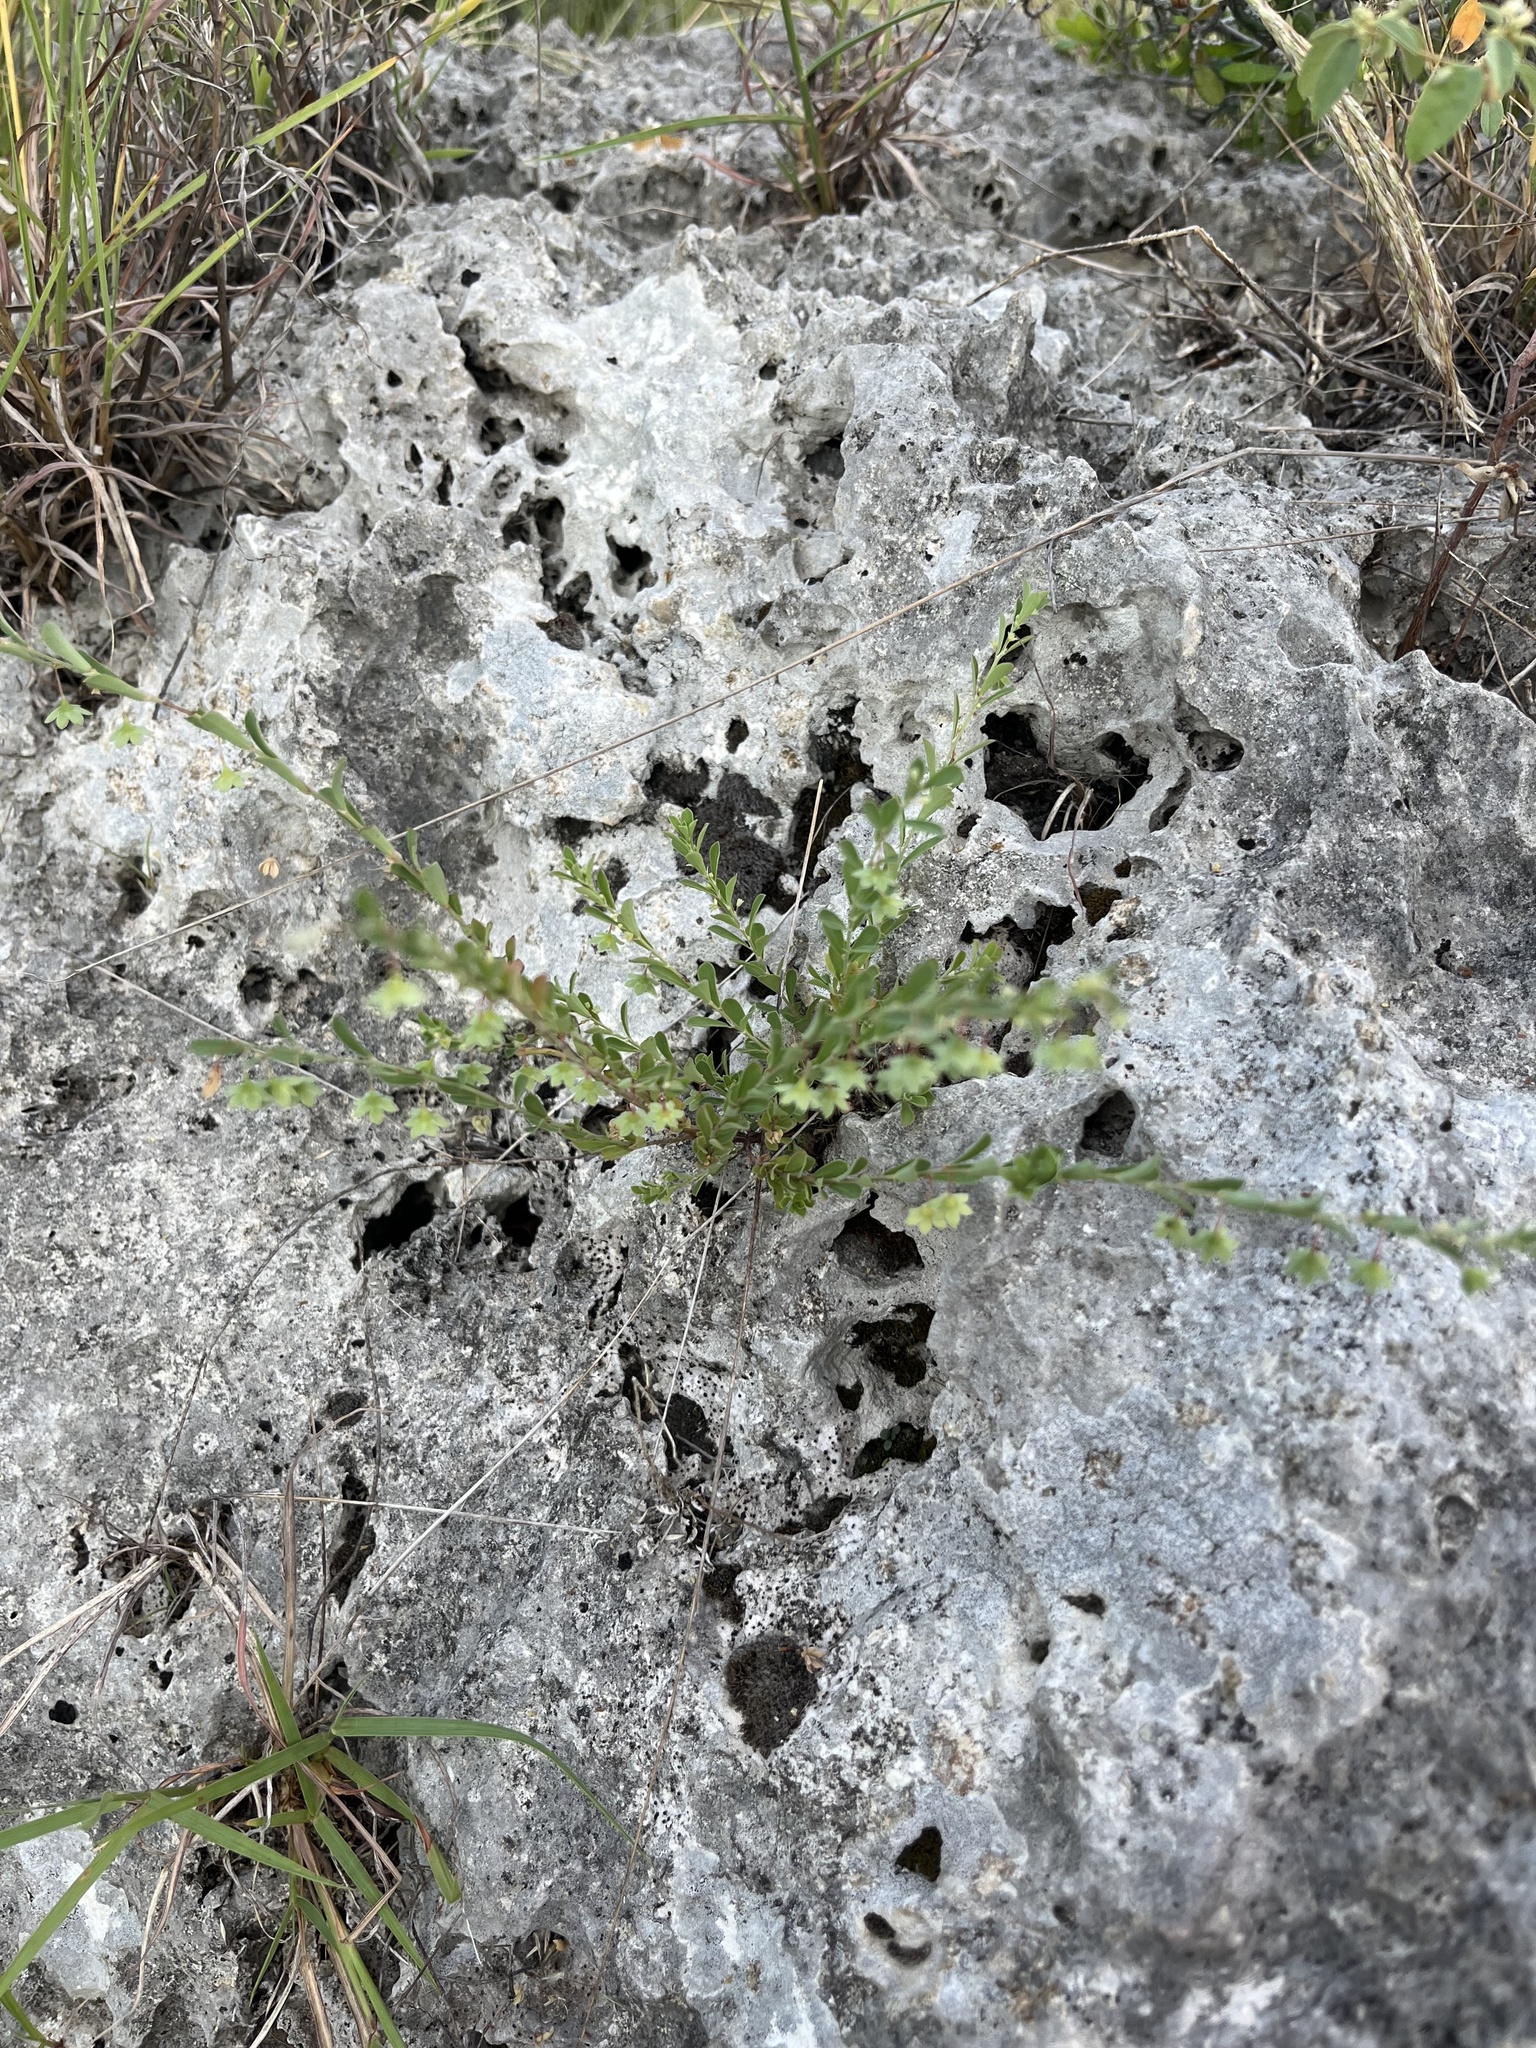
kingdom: Plantae
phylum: Tracheophyta
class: Magnoliopsida
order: Malpighiales
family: Phyllanthaceae
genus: Phyllanthus
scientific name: Phyllanthus polygonoides
